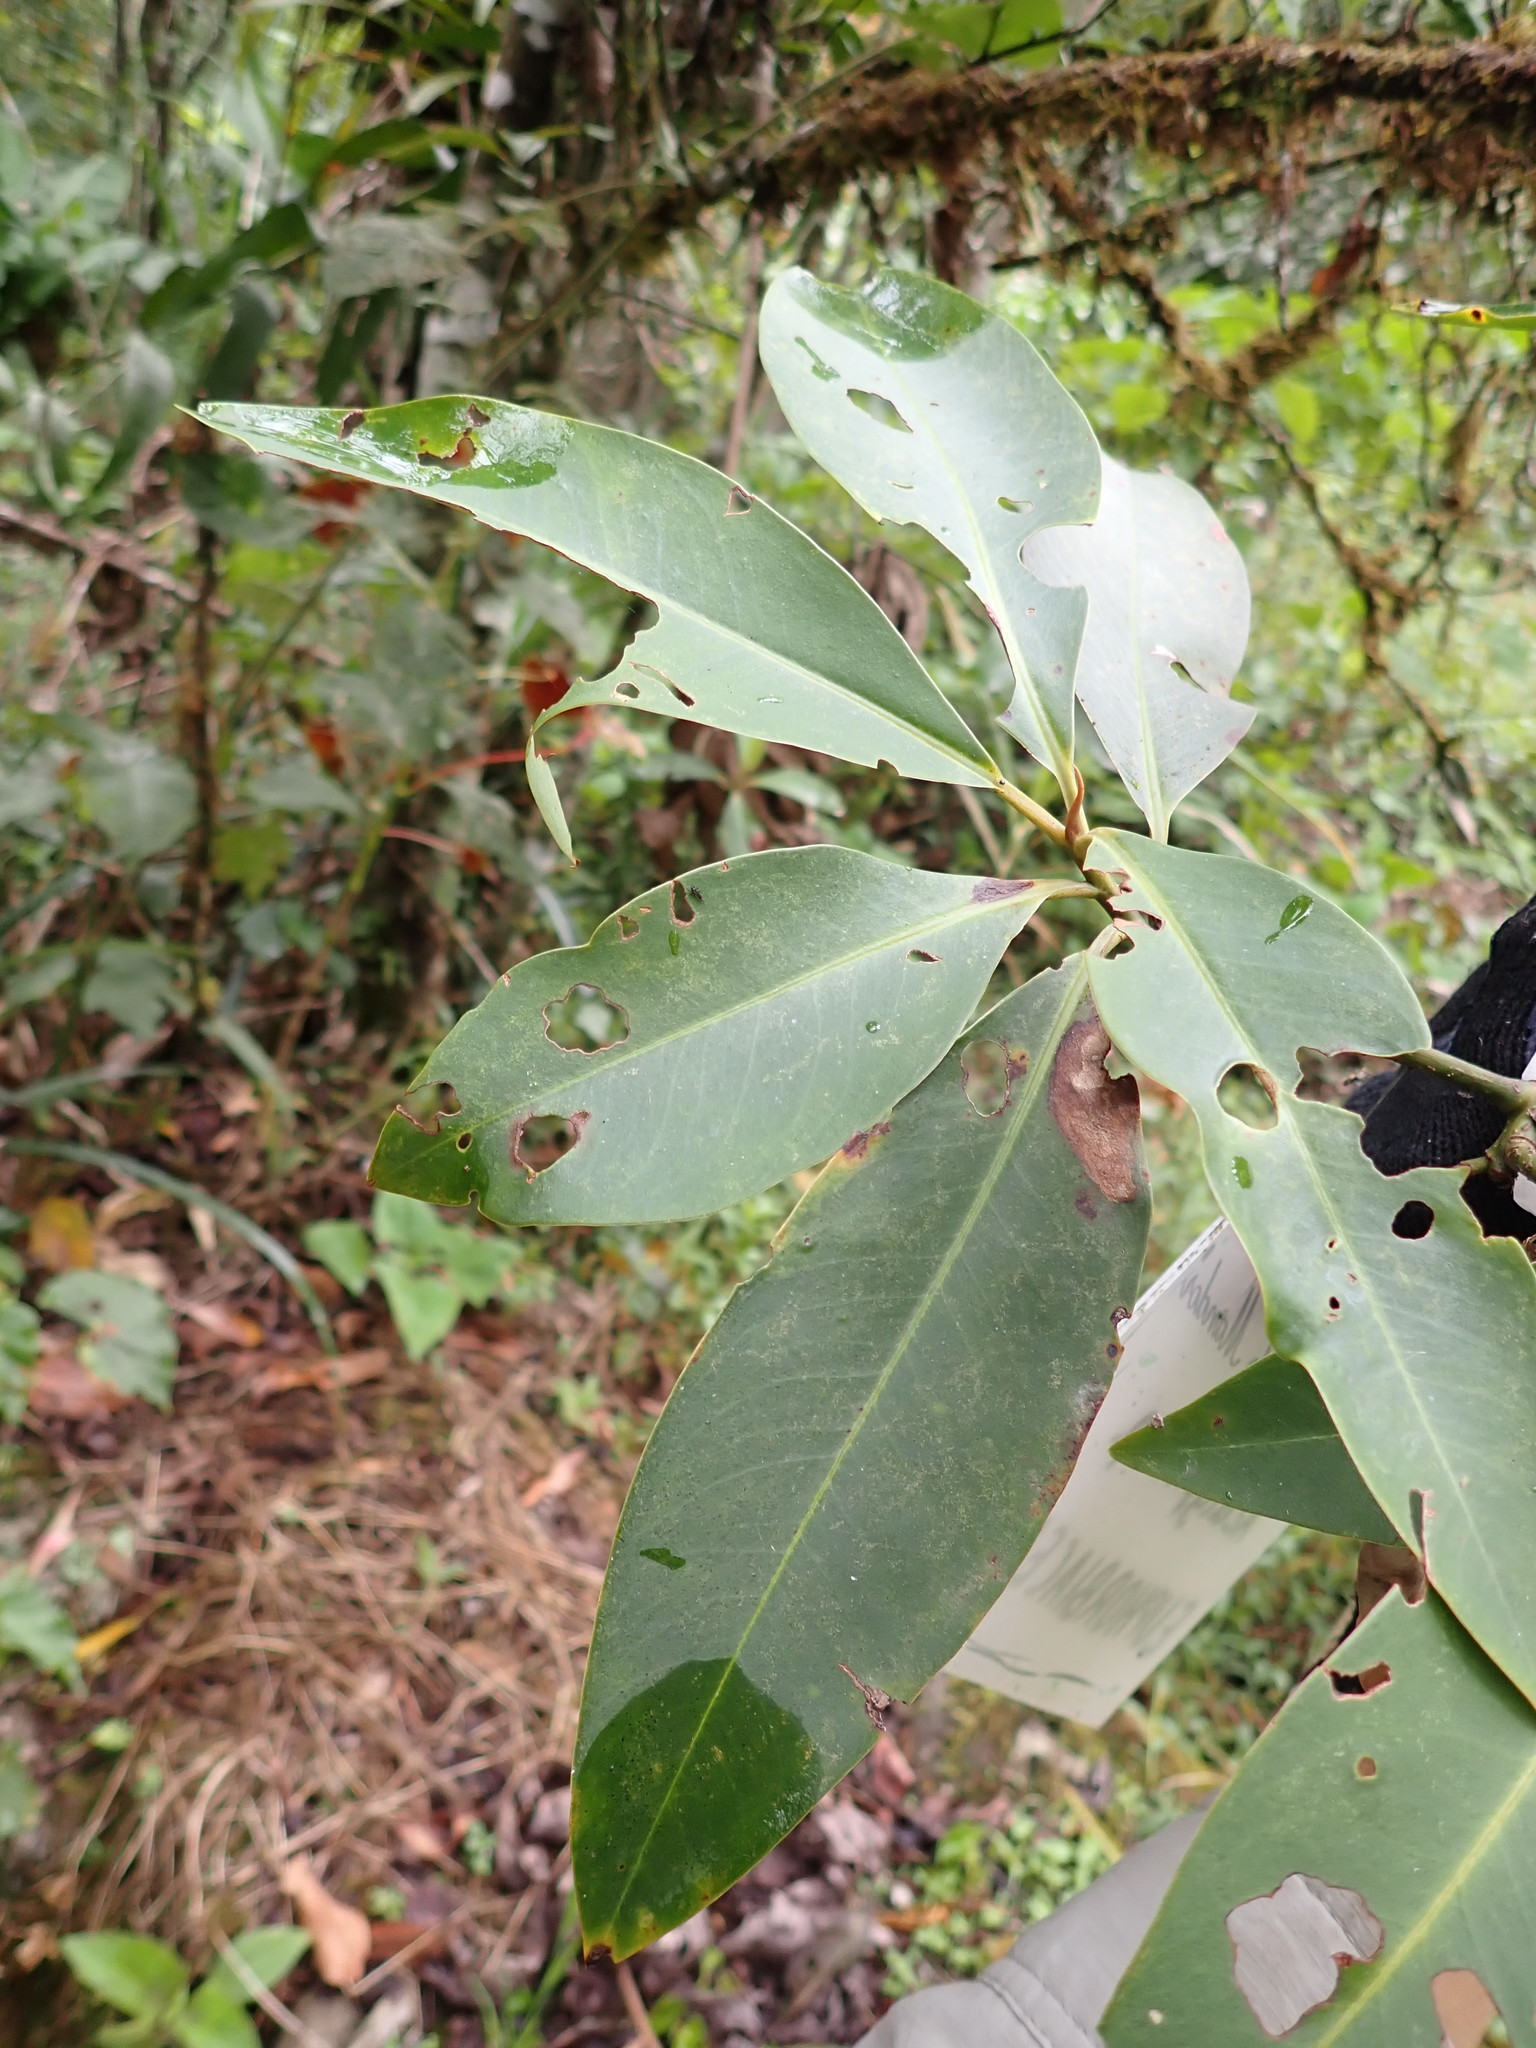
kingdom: Plantae
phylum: Tracheophyta
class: Magnoliopsida
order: Ericales
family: Primulaceae
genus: Myrsine
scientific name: Myrsine latifolia
